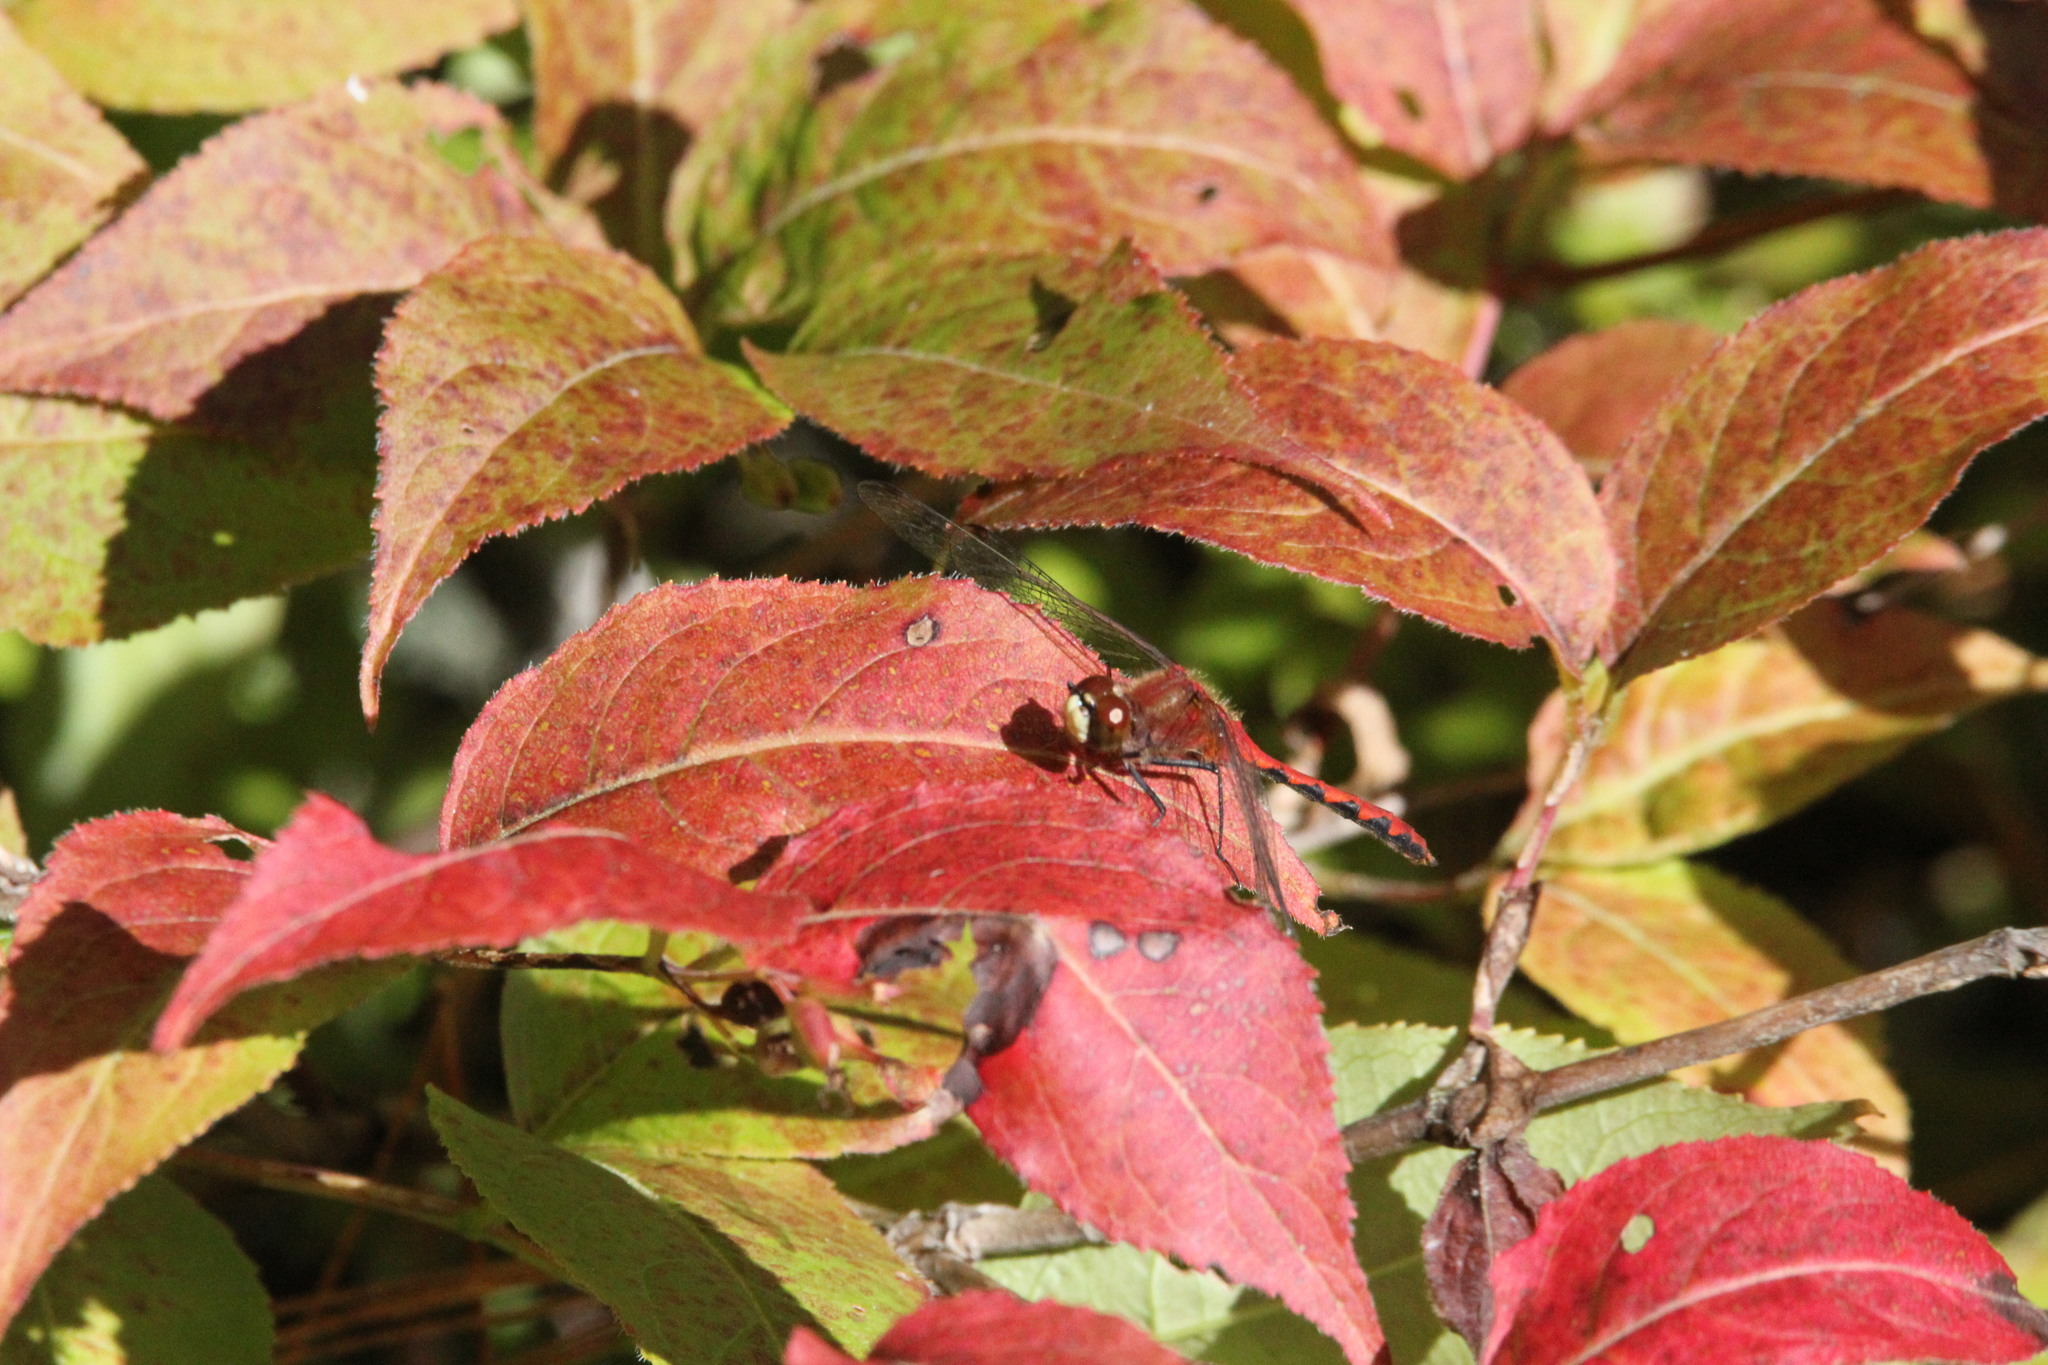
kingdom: Animalia
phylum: Arthropoda
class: Insecta
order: Odonata
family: Libellulidae
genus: Sympetrum
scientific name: Sympetrum obtrusum
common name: White-faced meadowhawk
